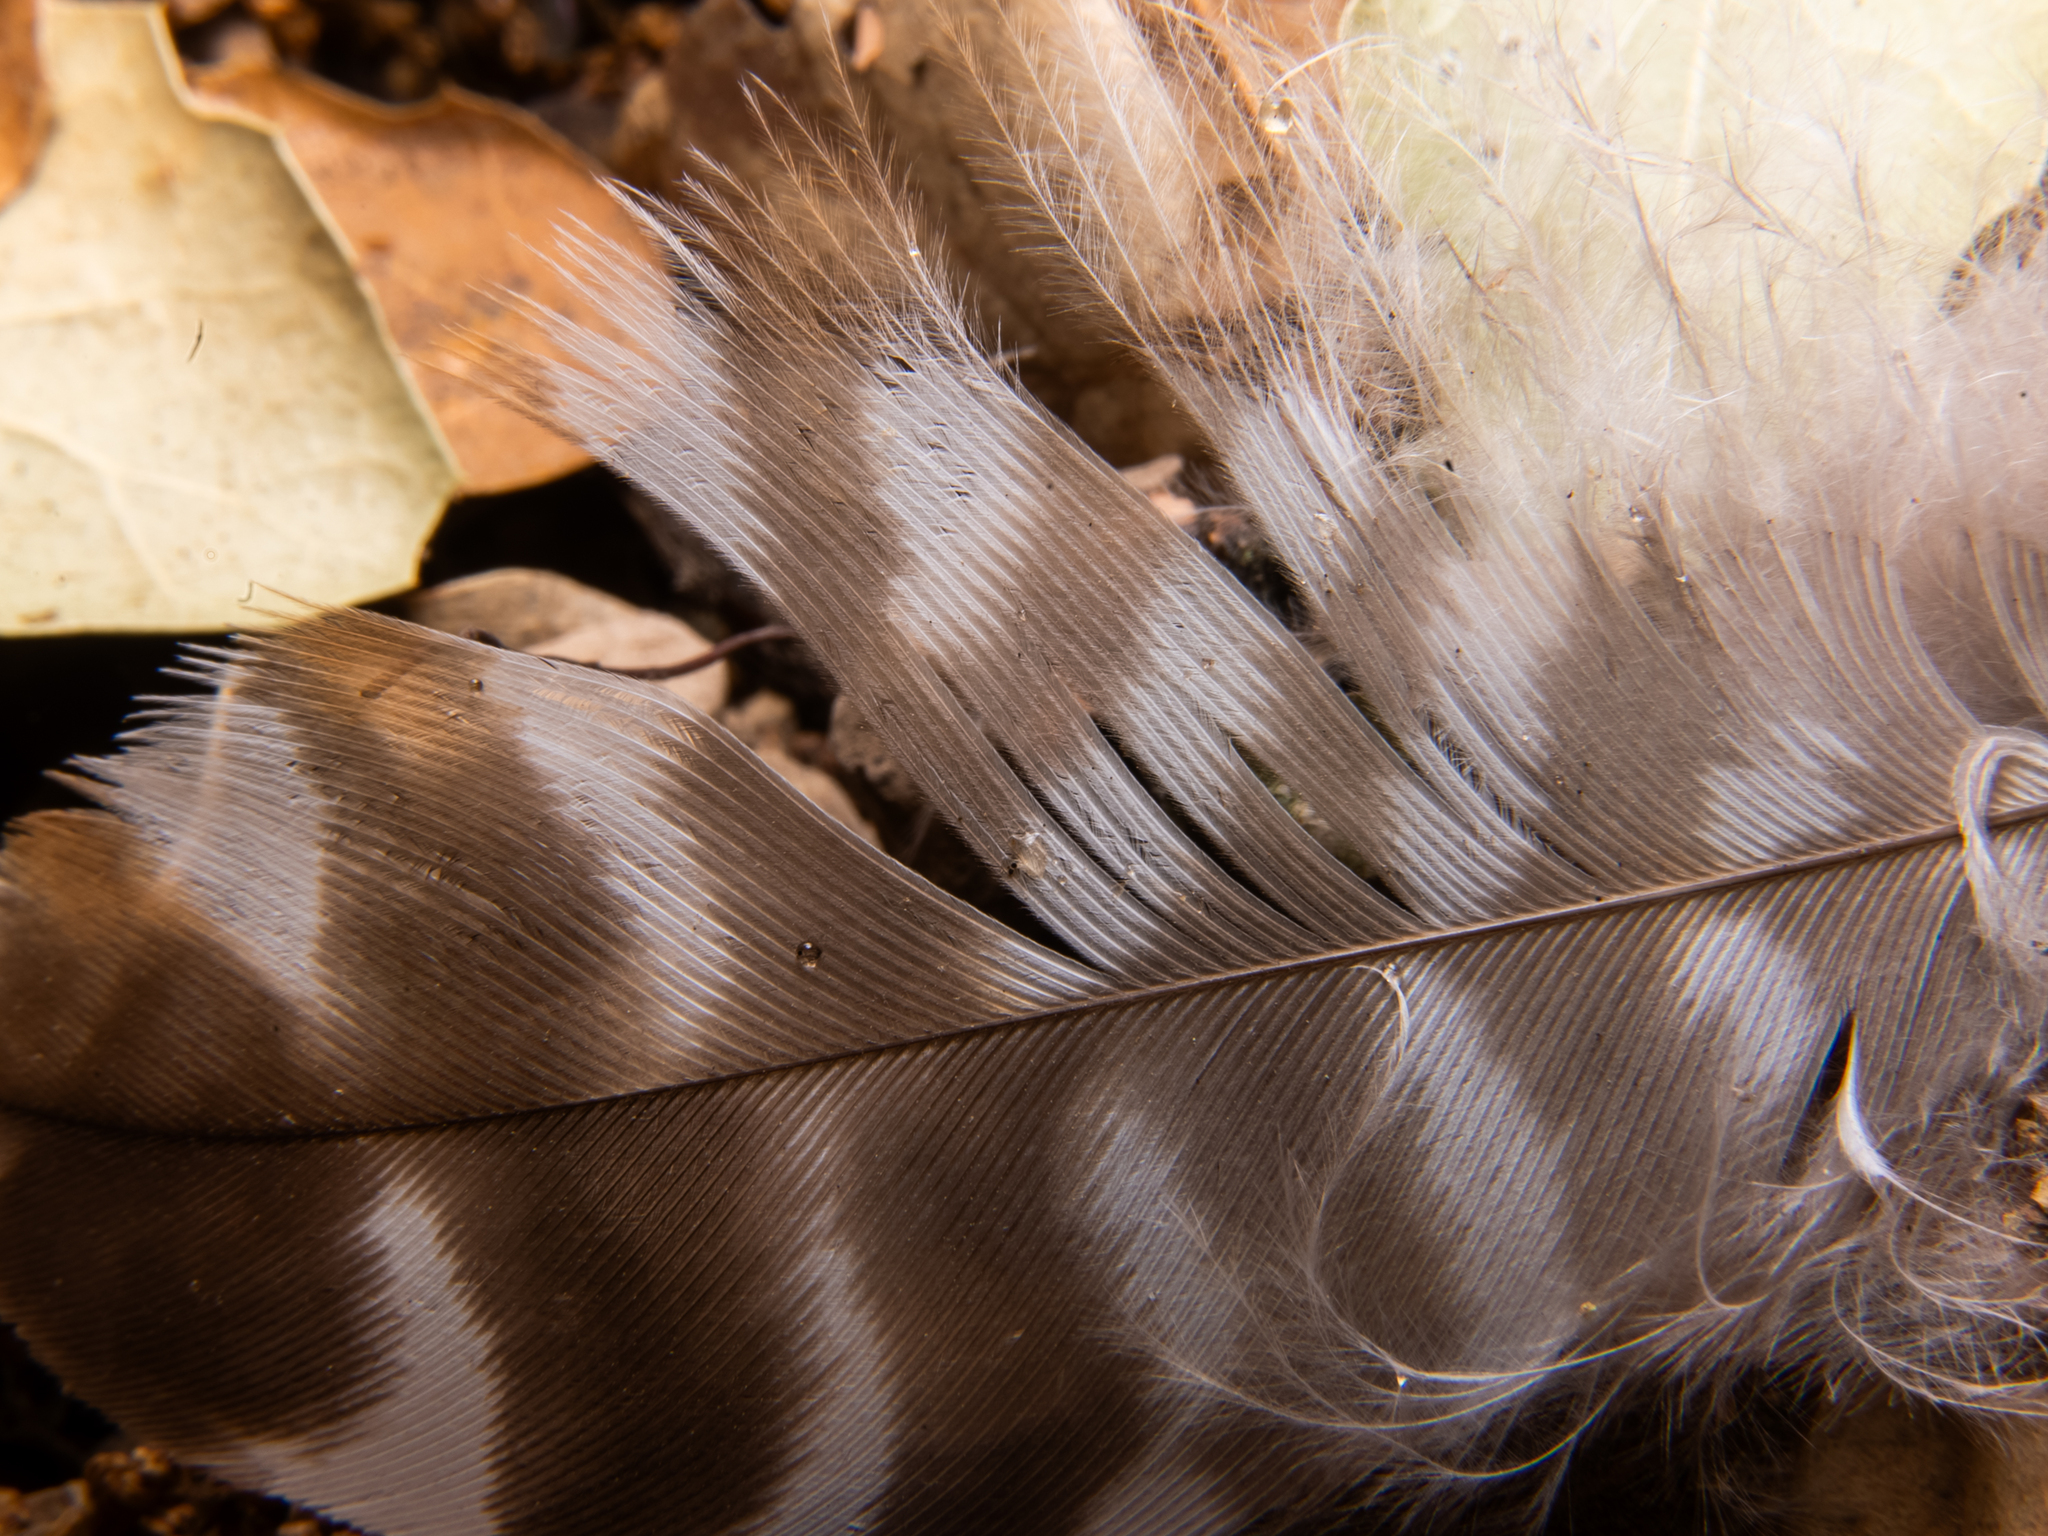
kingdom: Animalia
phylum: Chordata
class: Aves
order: Accipitriformes
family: Accipitridae
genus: Buteo
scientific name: Buteo lineatus
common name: Red-shouldered hawk
